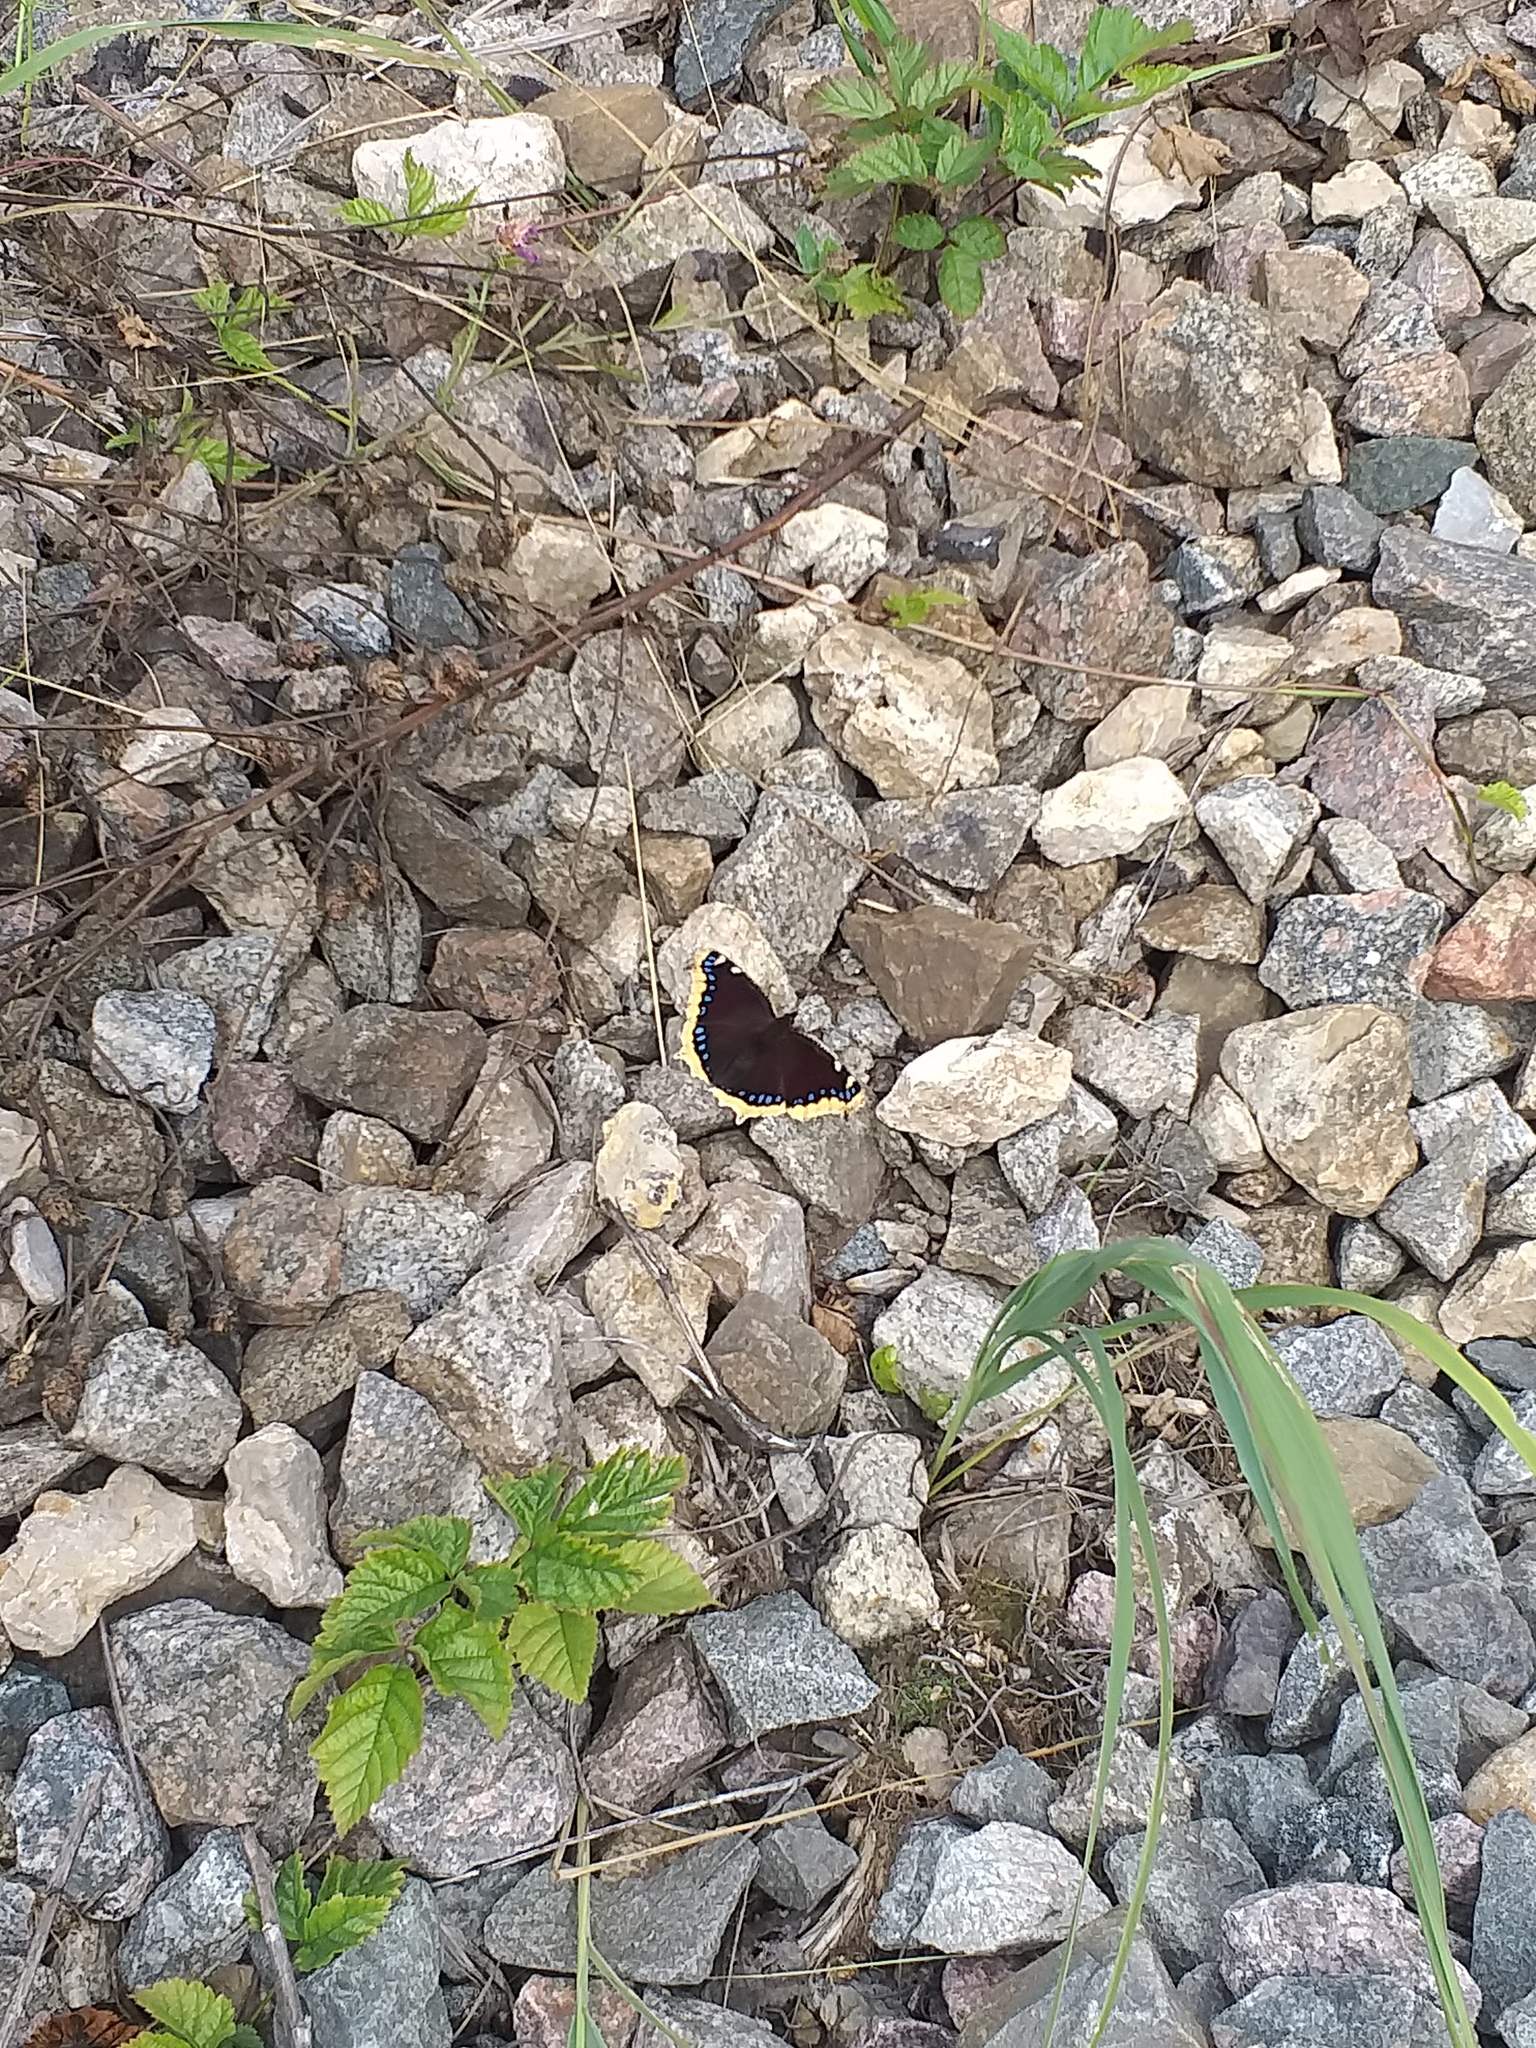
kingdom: Animalia
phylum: Arthropoda
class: Insecta
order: Lepidoptera
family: Nymphalidae
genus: Nymphalis
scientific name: Nymphalis antiopa
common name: Camberwell beauty
